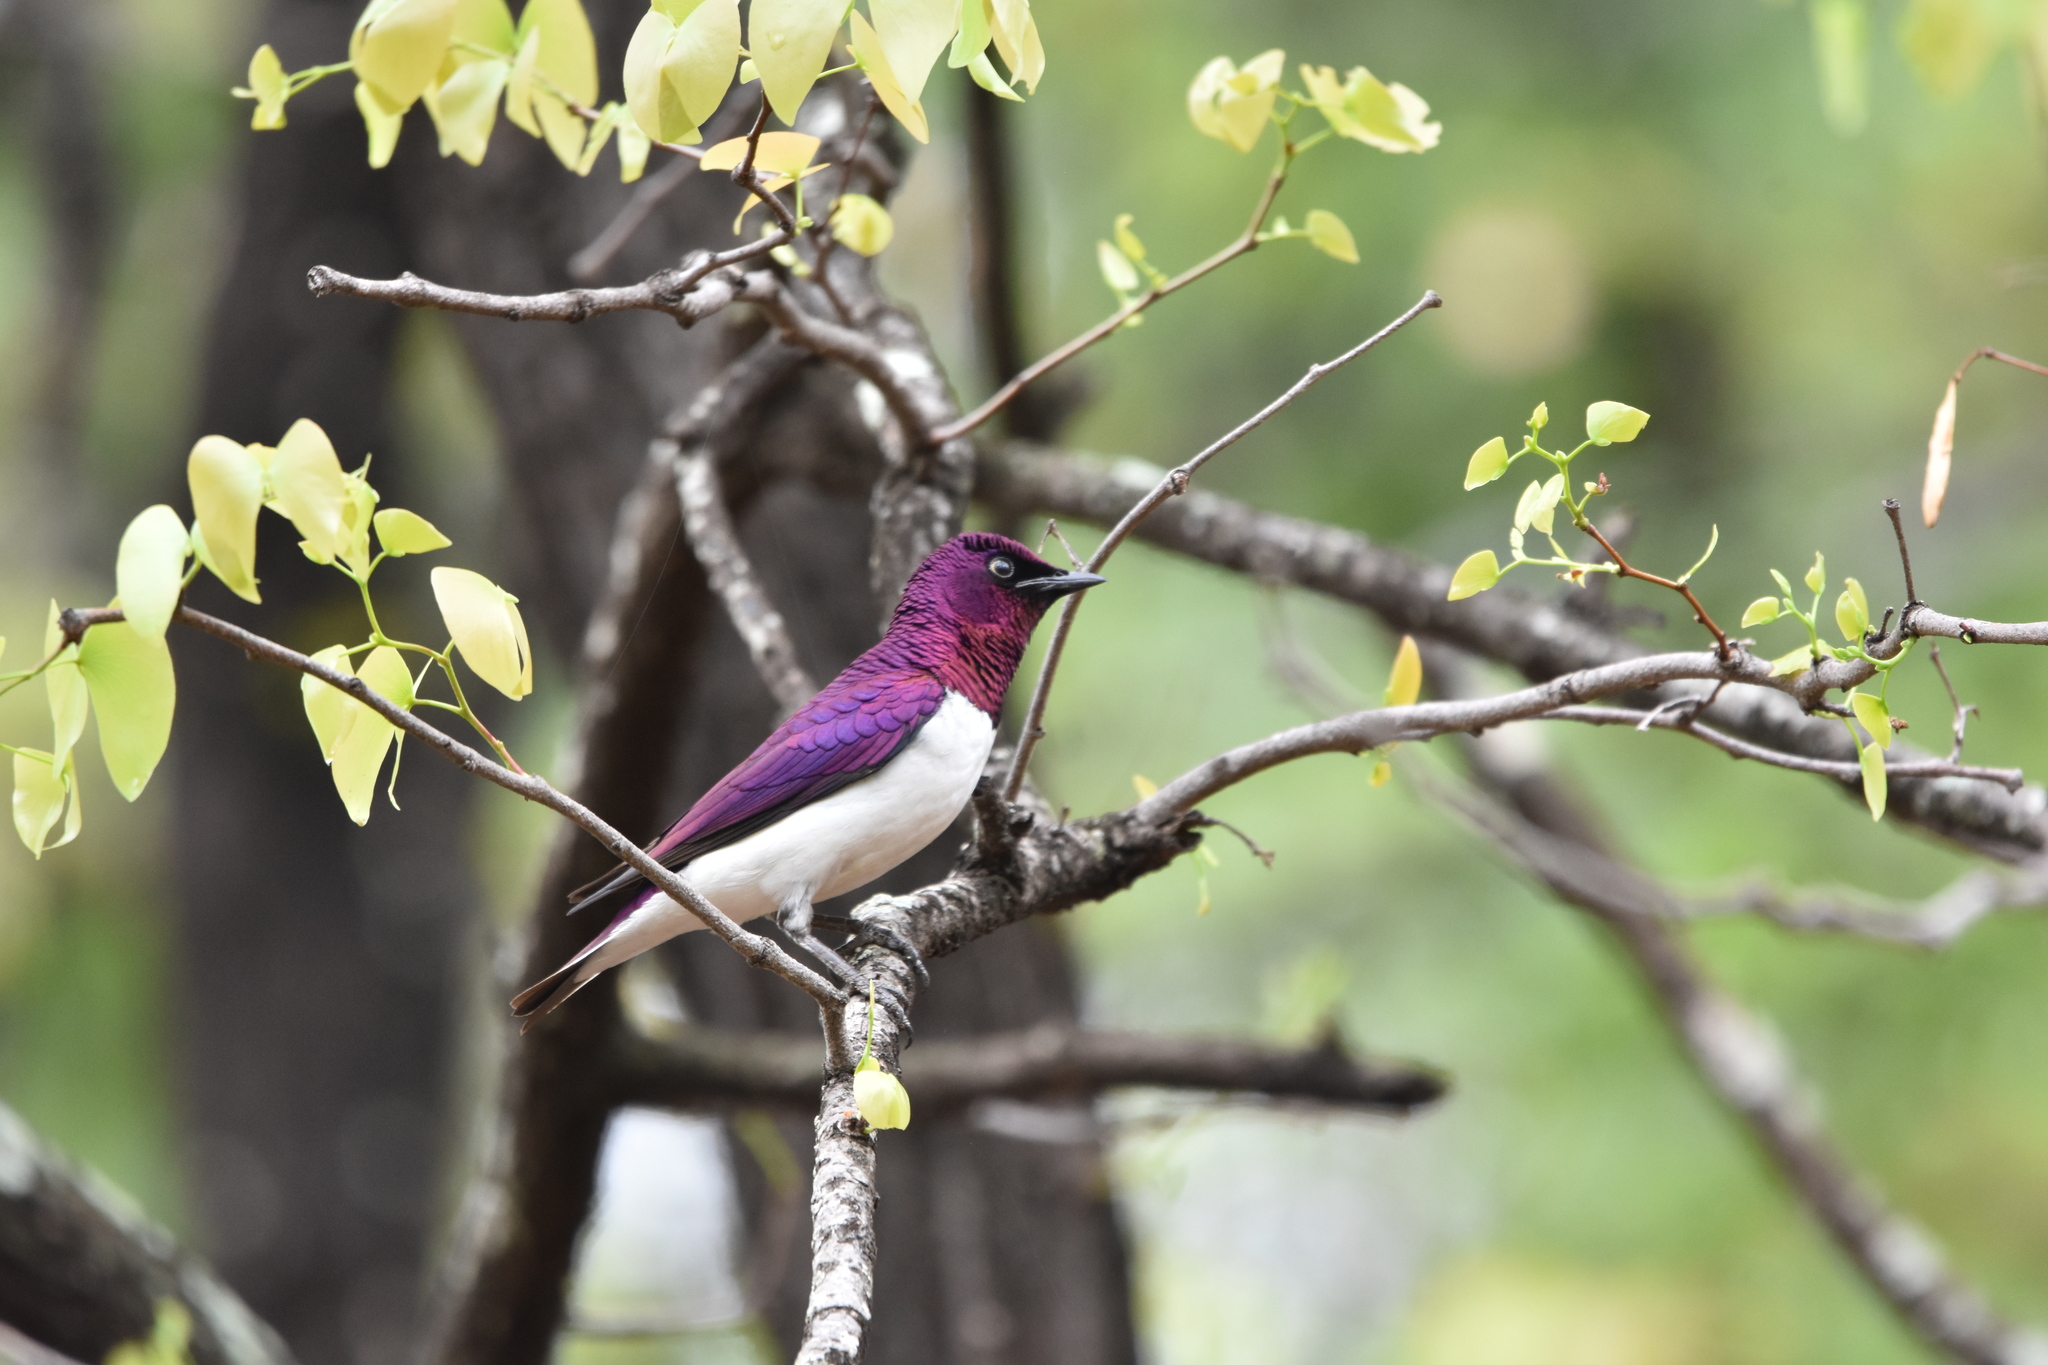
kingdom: Animalia
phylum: Chordata
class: Aves
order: Passeriformes
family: Sturnidae
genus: Cinnyricinclus
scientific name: Cinnyricinclus leucogaster
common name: Violet-backed starling
